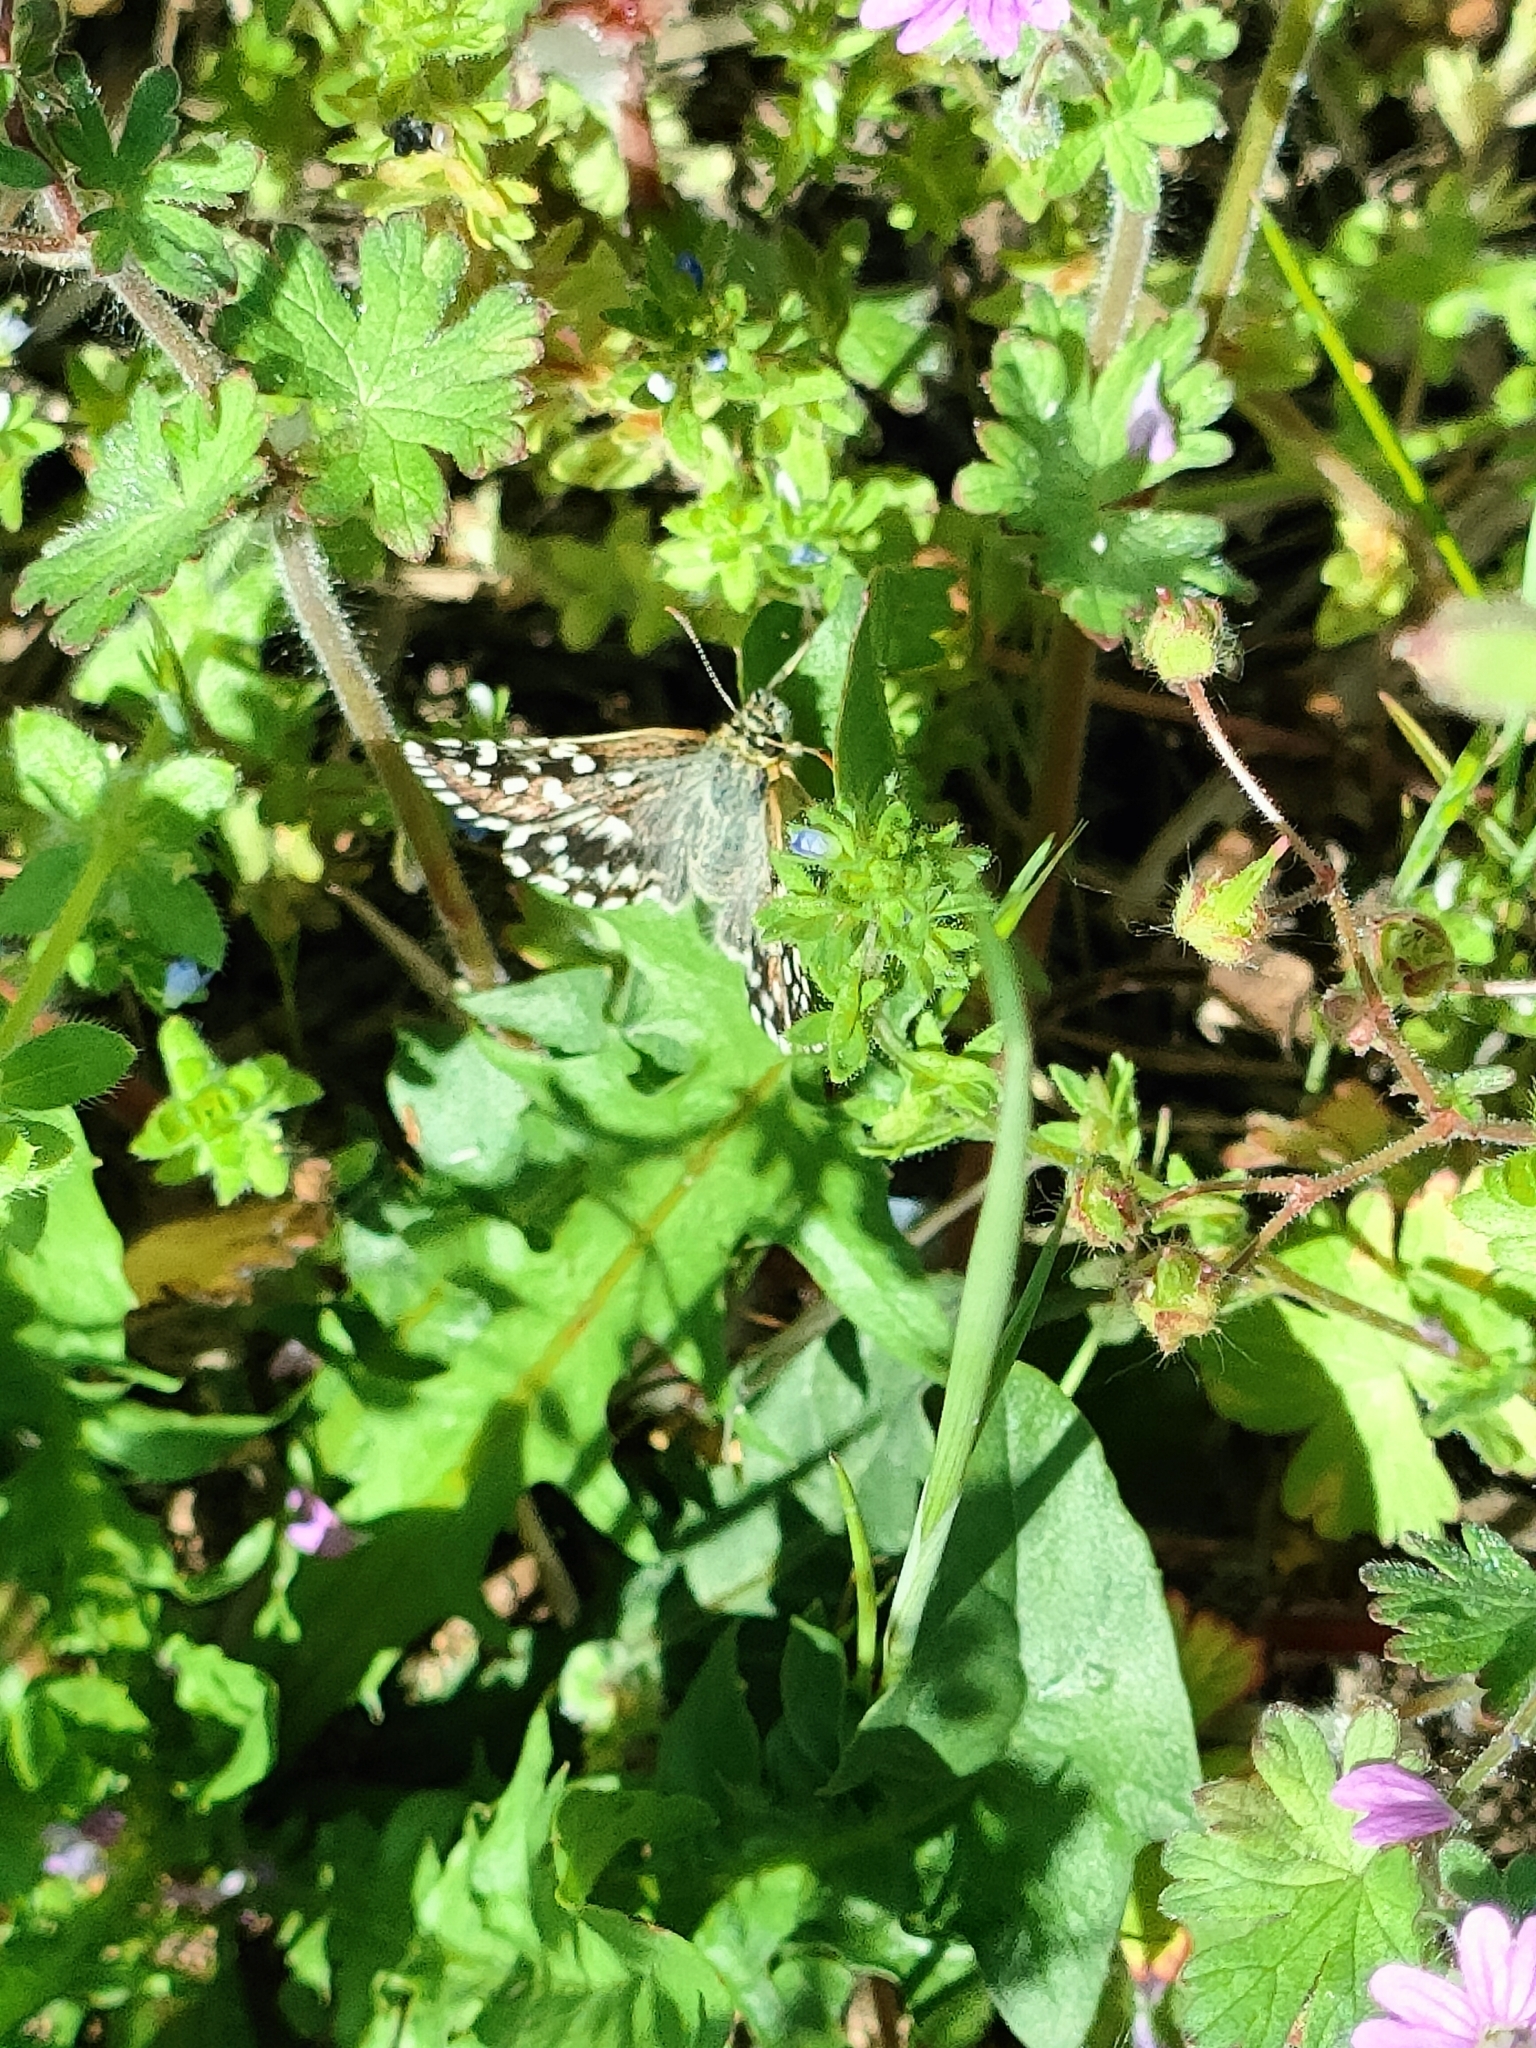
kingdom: Animalia
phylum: Arthropoda
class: Insecta
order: Lepidoptera
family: Hesperiidae
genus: Pyrgus
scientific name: Pyrgus malvoides
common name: Southern grizzled skipper
